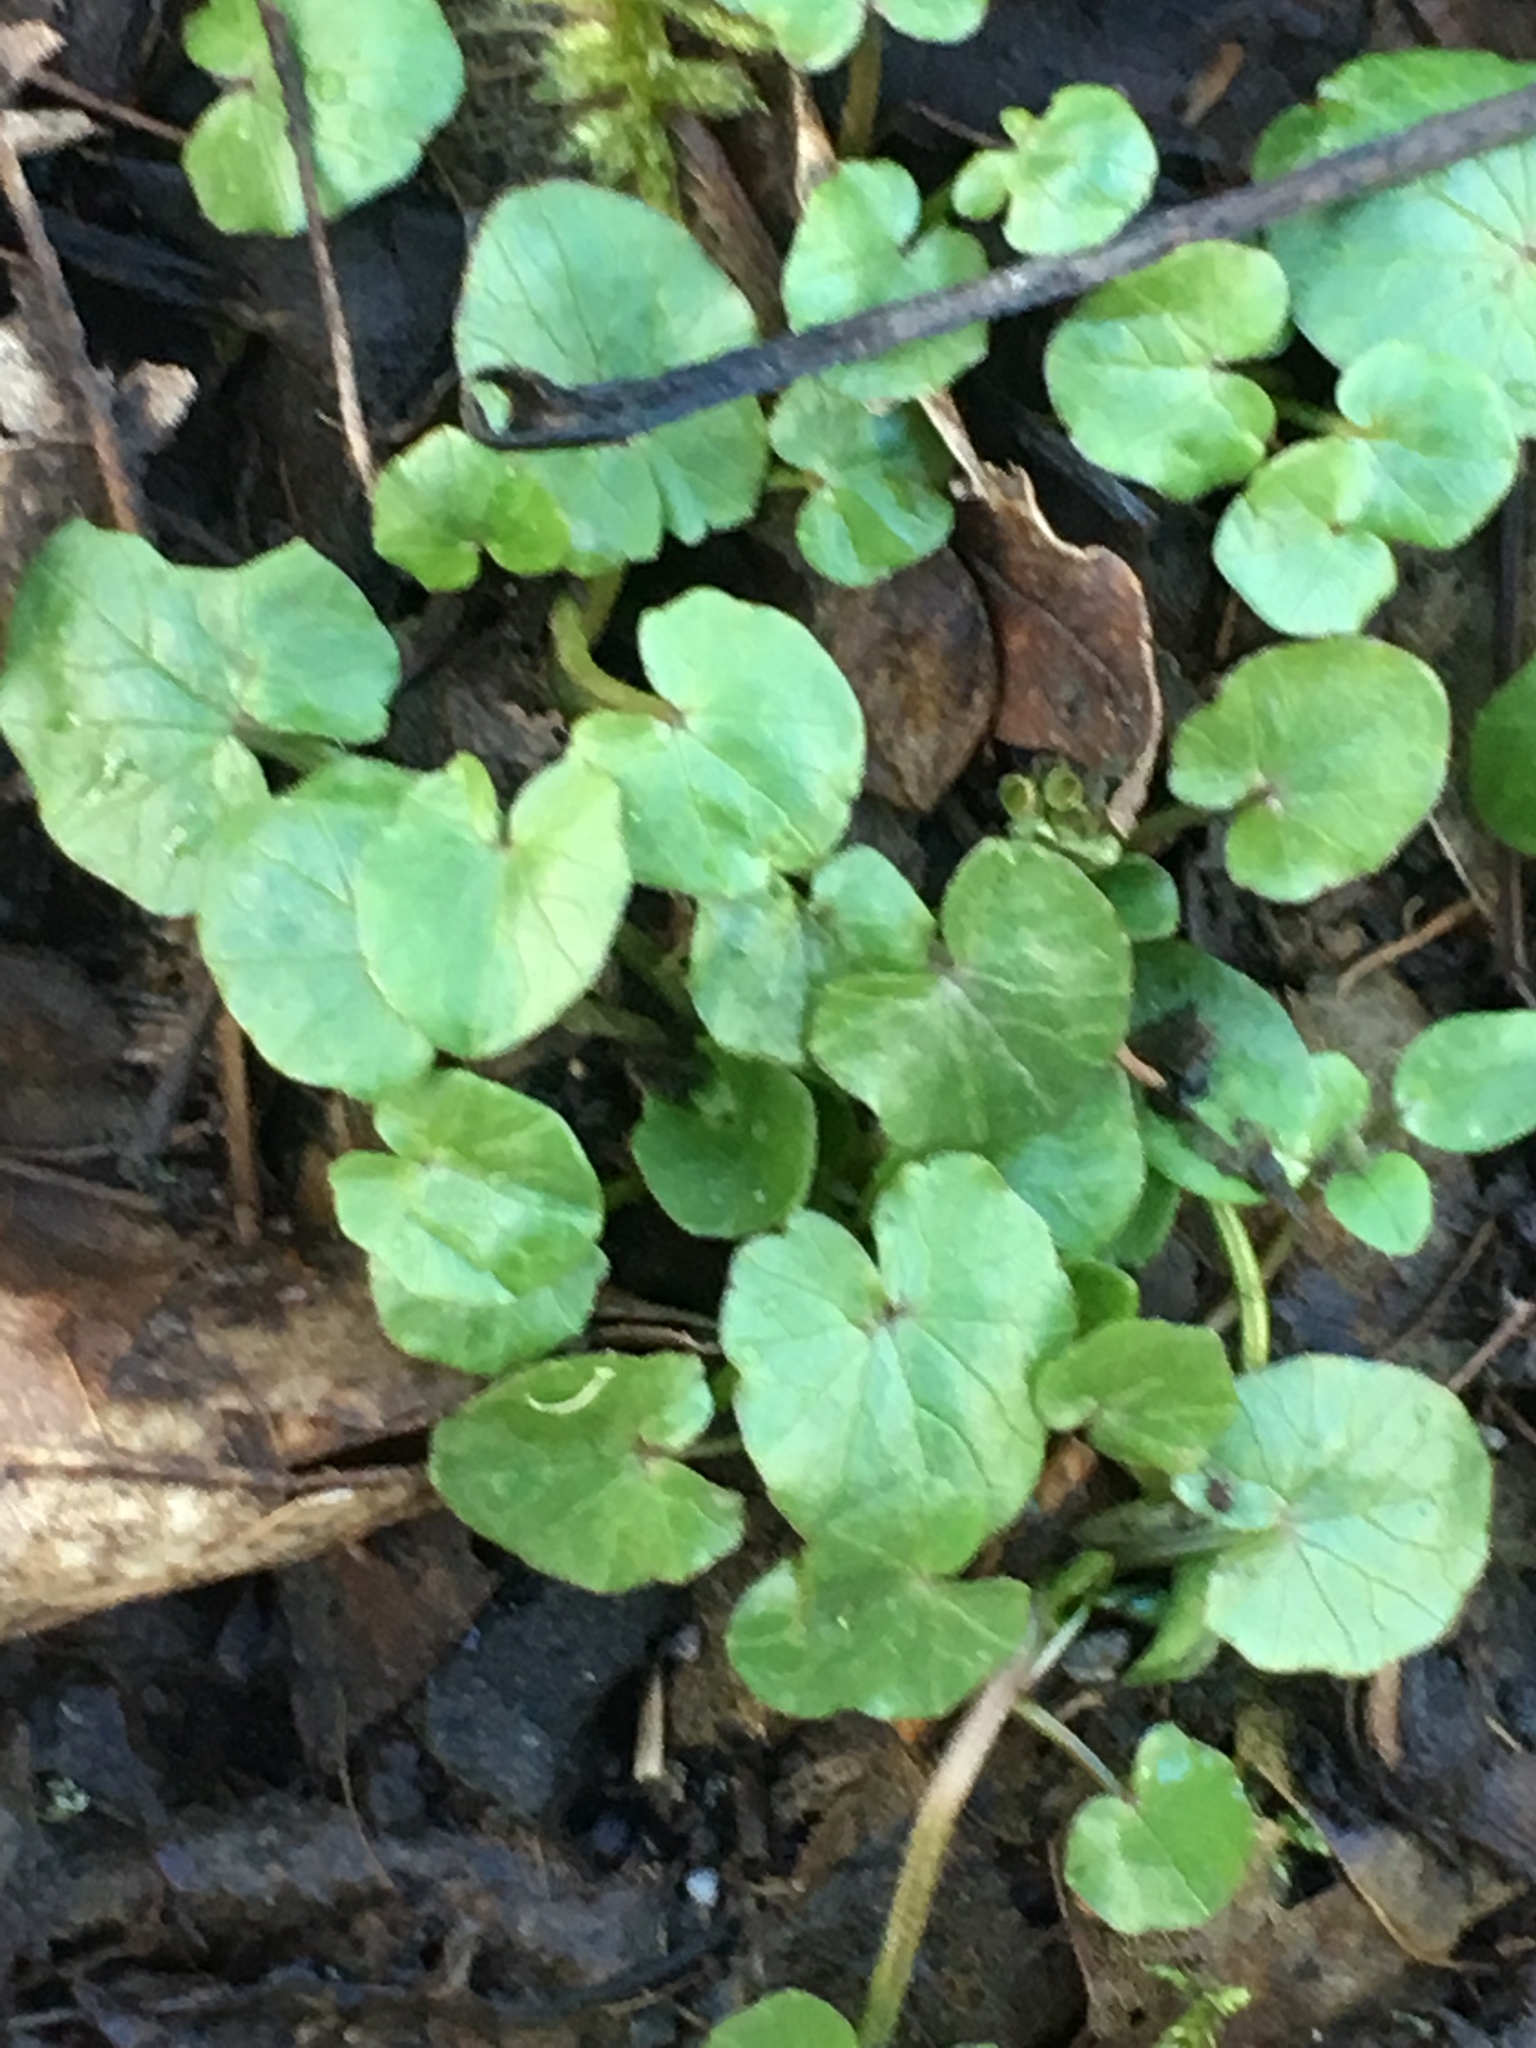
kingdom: Plantae
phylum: Tracheophyta
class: Magnoliopsida
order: Ranunculales
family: Ranunculaceae
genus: Ficaria
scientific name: Ficaria verna
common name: Lesser celandine
